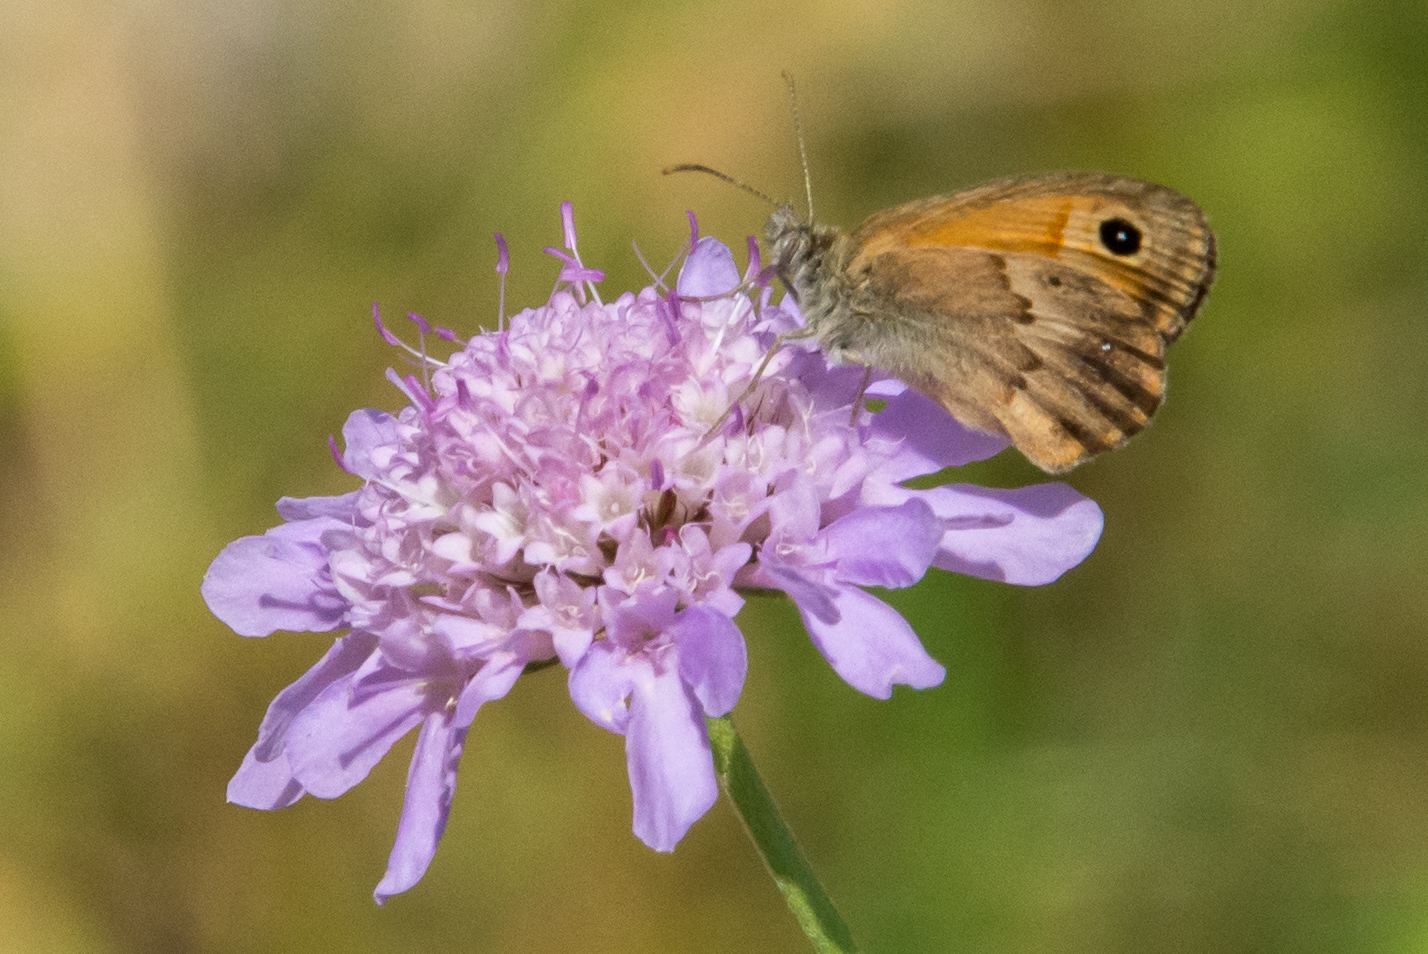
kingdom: Animalia
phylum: Arthropoda
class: Insecta
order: Lepidoptera
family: Nymphalidae
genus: Coenonympha
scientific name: Coenonympha pamphilus
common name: Small heath
